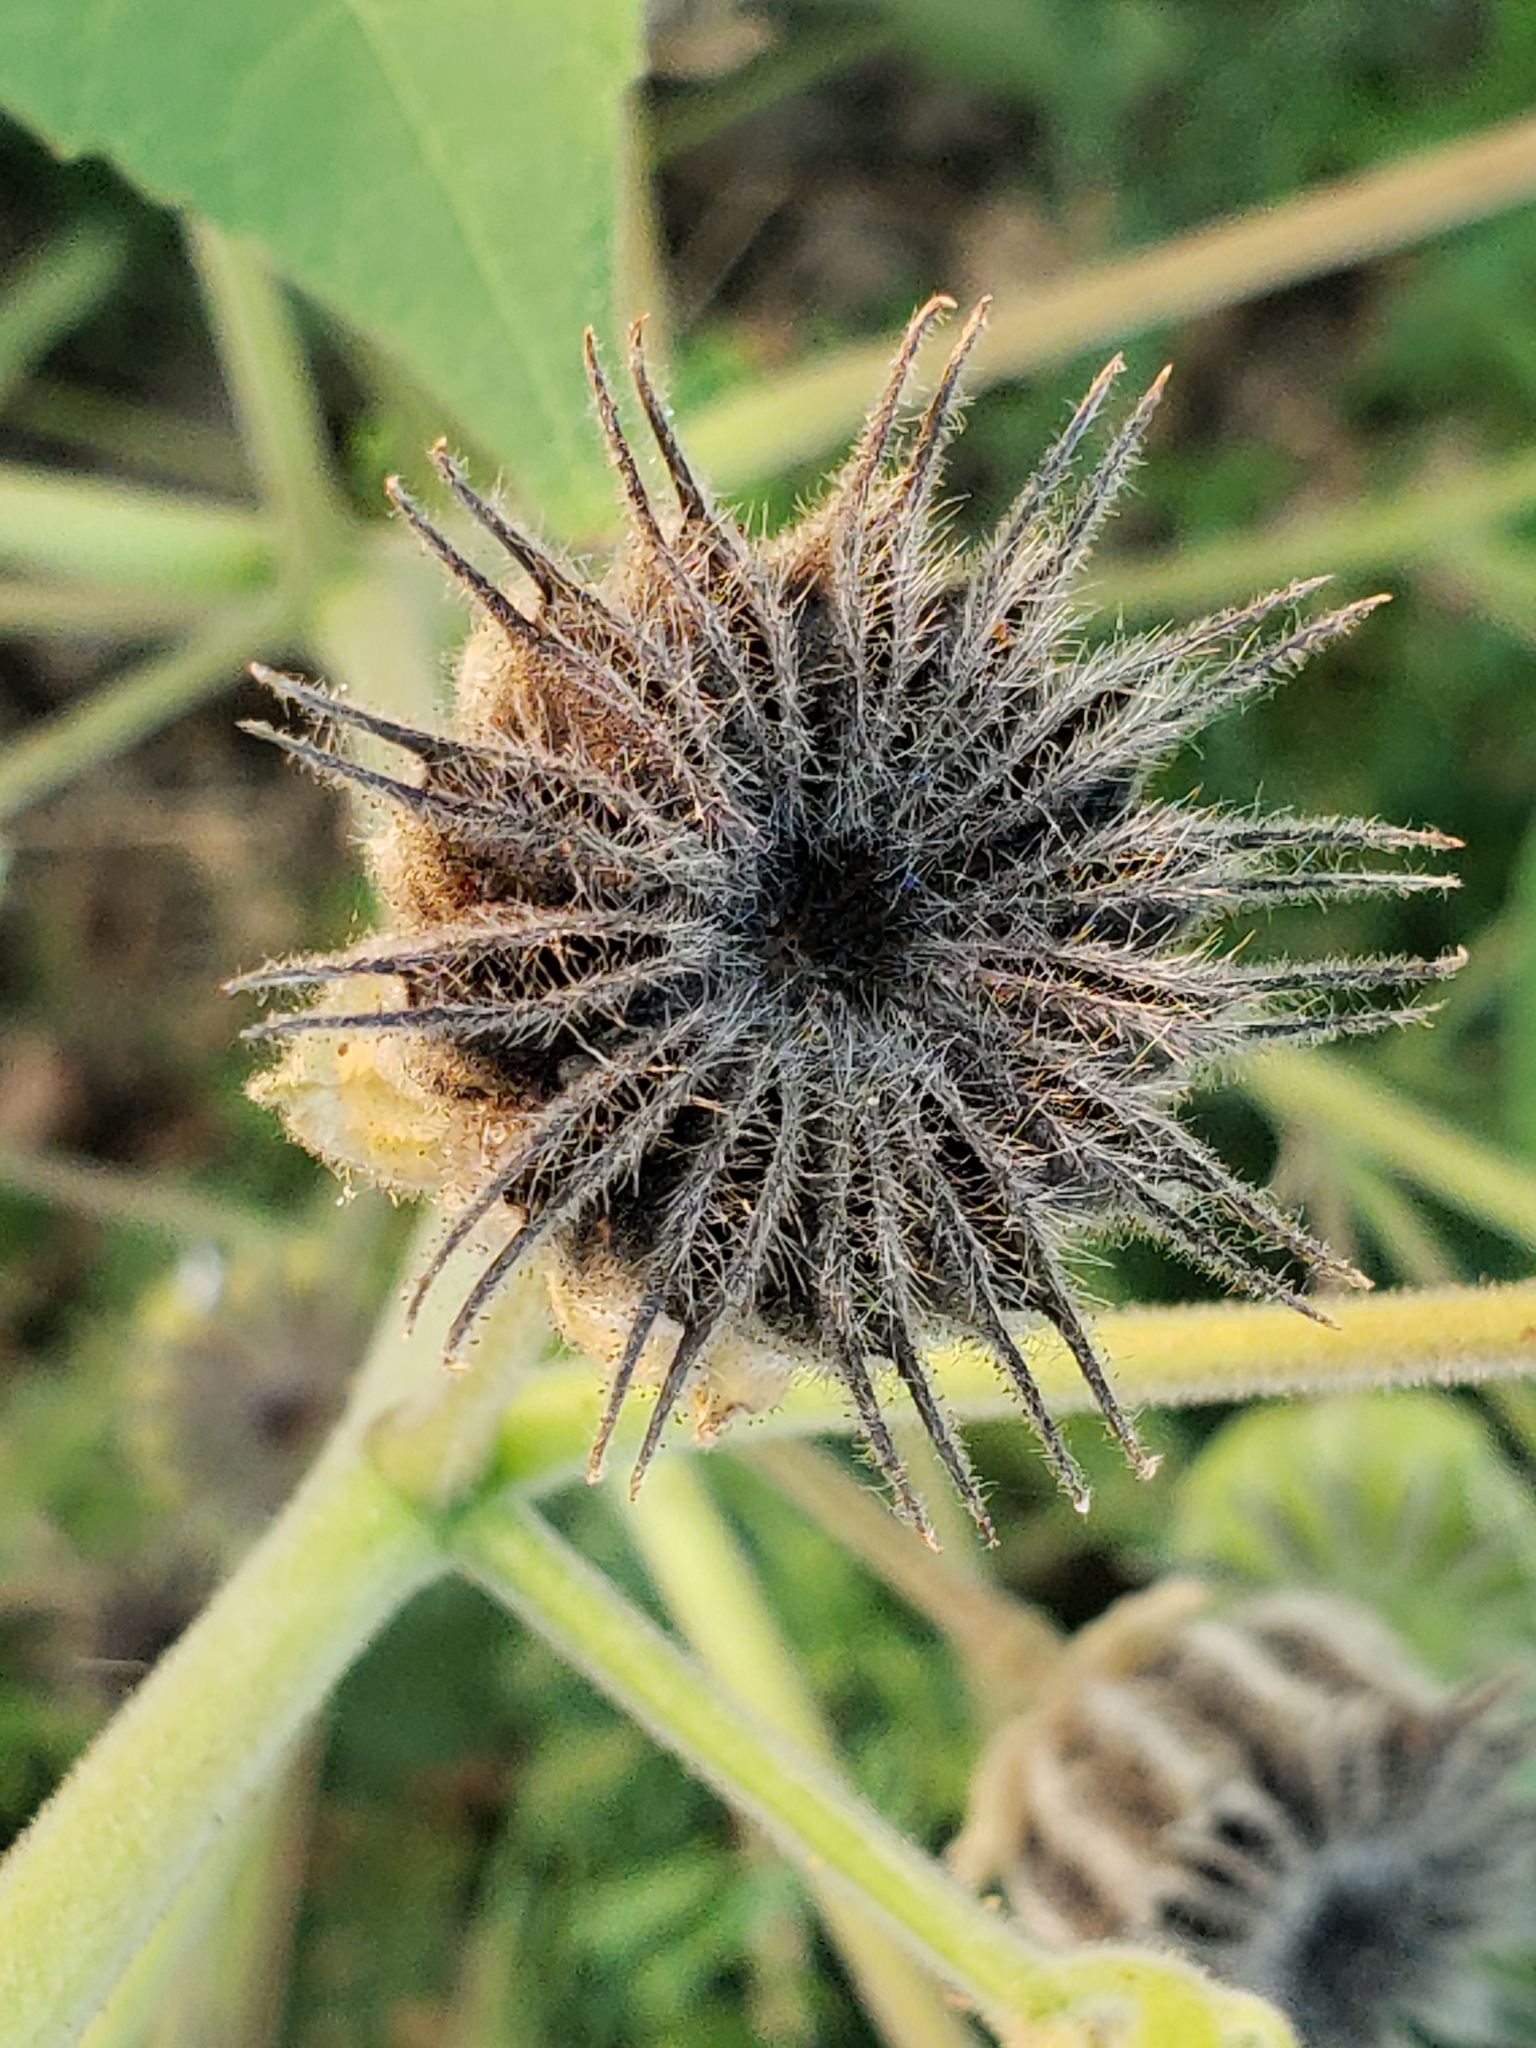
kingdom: Plantae
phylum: Tracheophyta
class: Magnoliopsida
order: Malvales
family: Malvaceae
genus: Abutilon
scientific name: Abutilon theophrasti
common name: Velvetleaf
